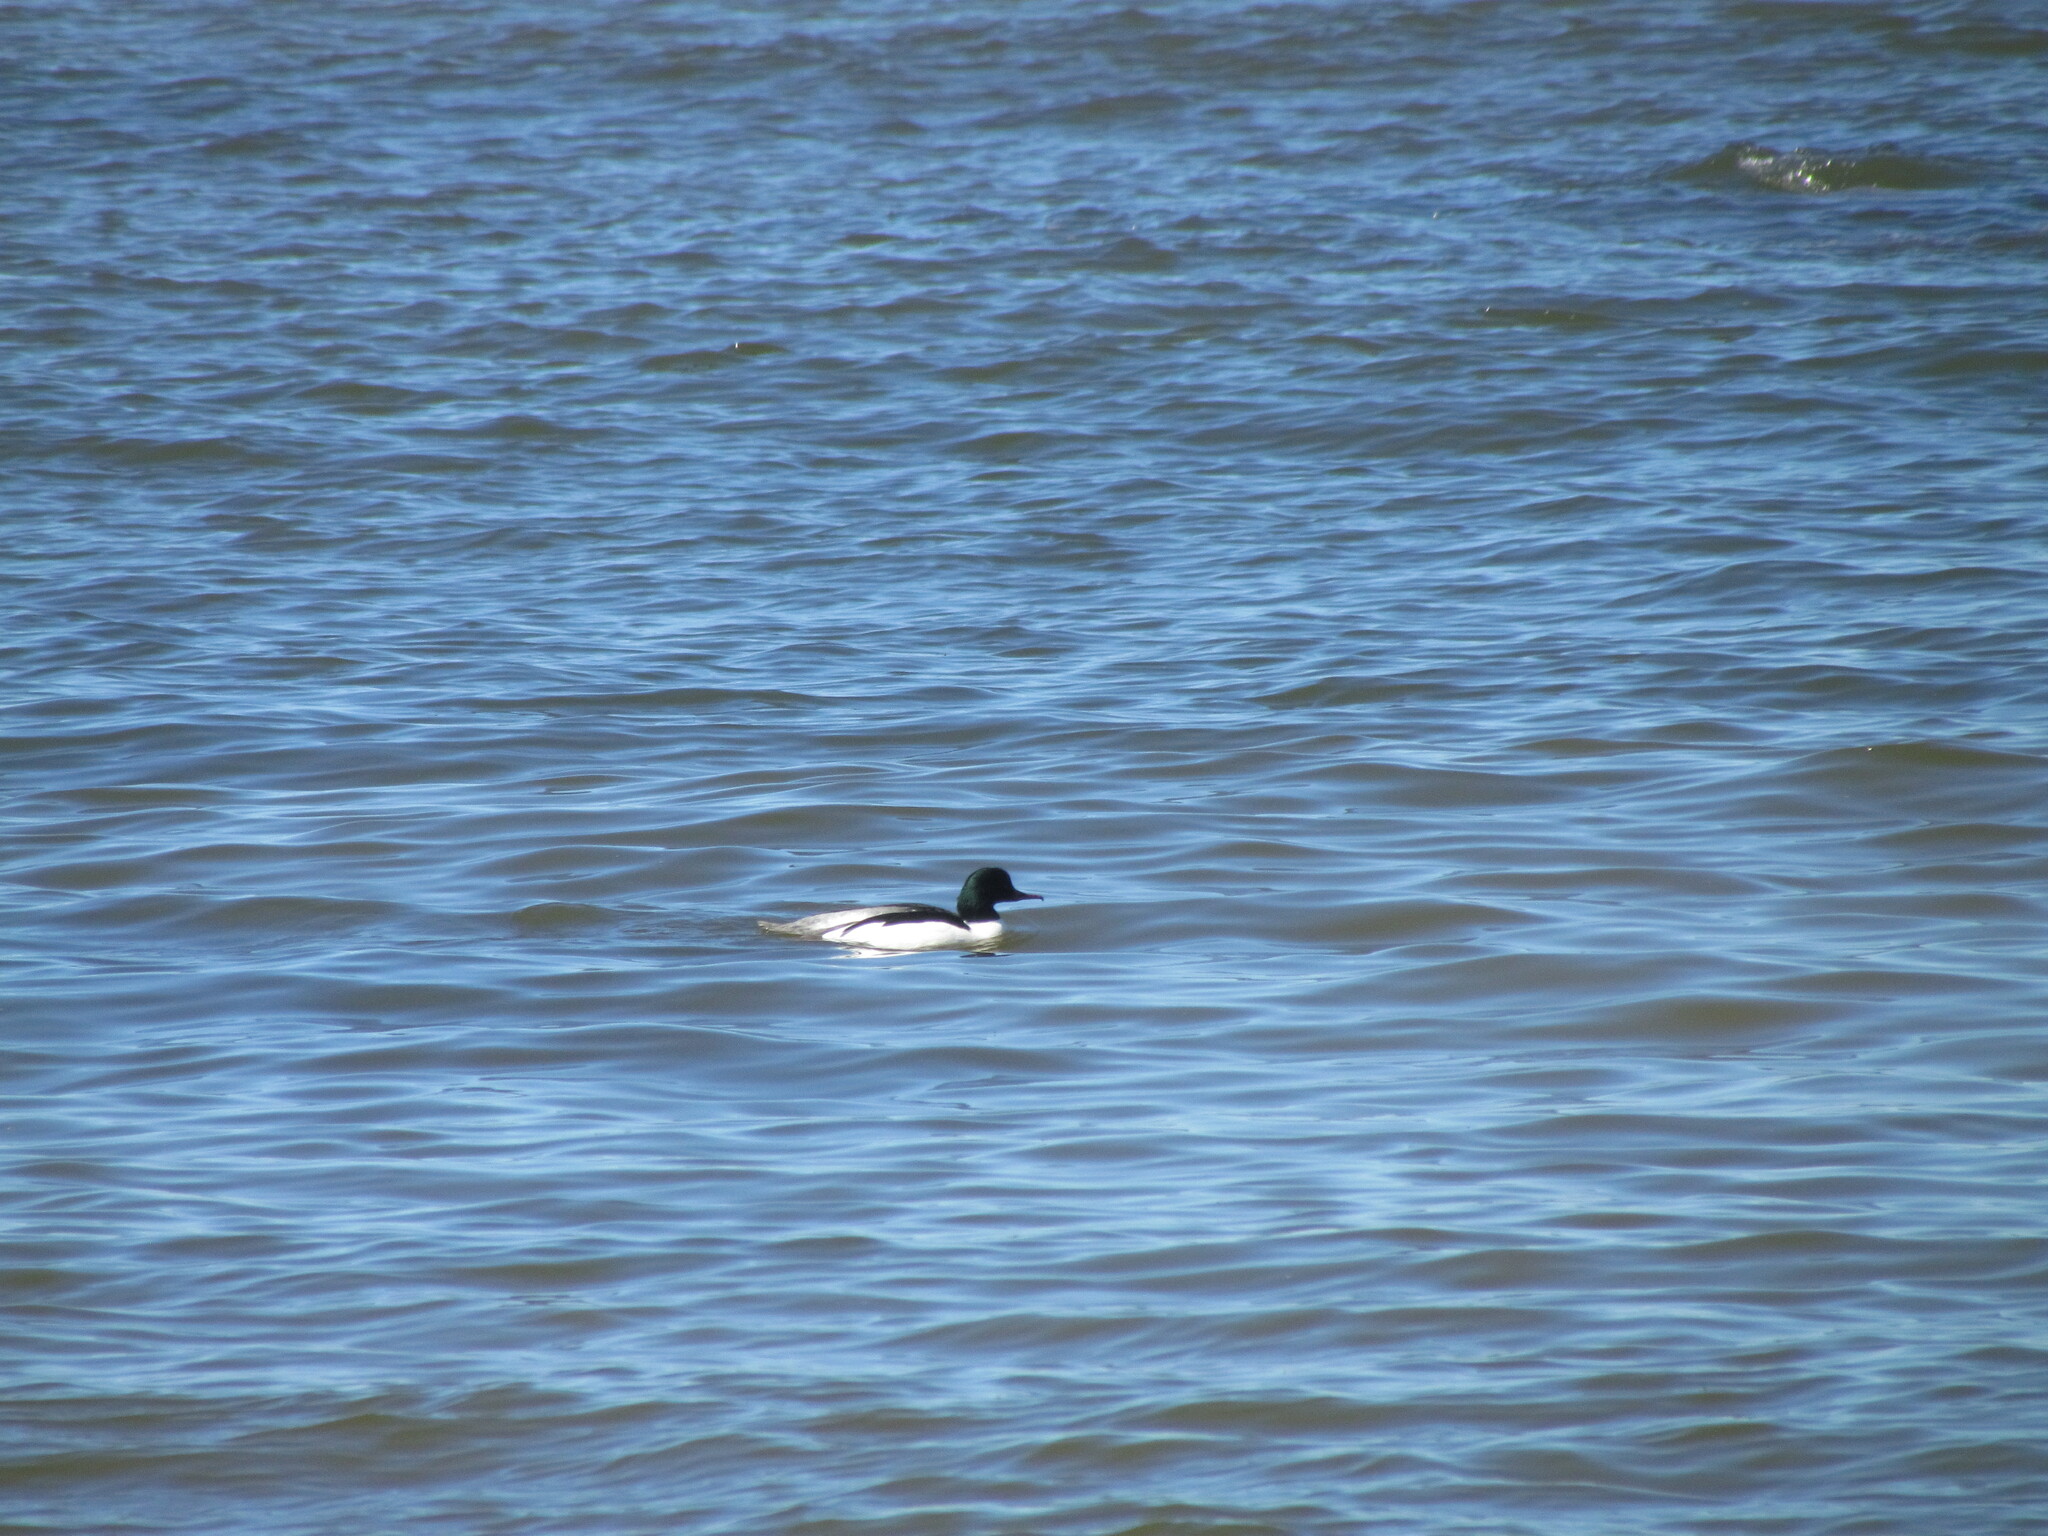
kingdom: Animalia
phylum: Chordata
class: Aves
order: Anseriformes
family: Anatidae
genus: Mergus
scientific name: Mergus merganser
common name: Common merganser
